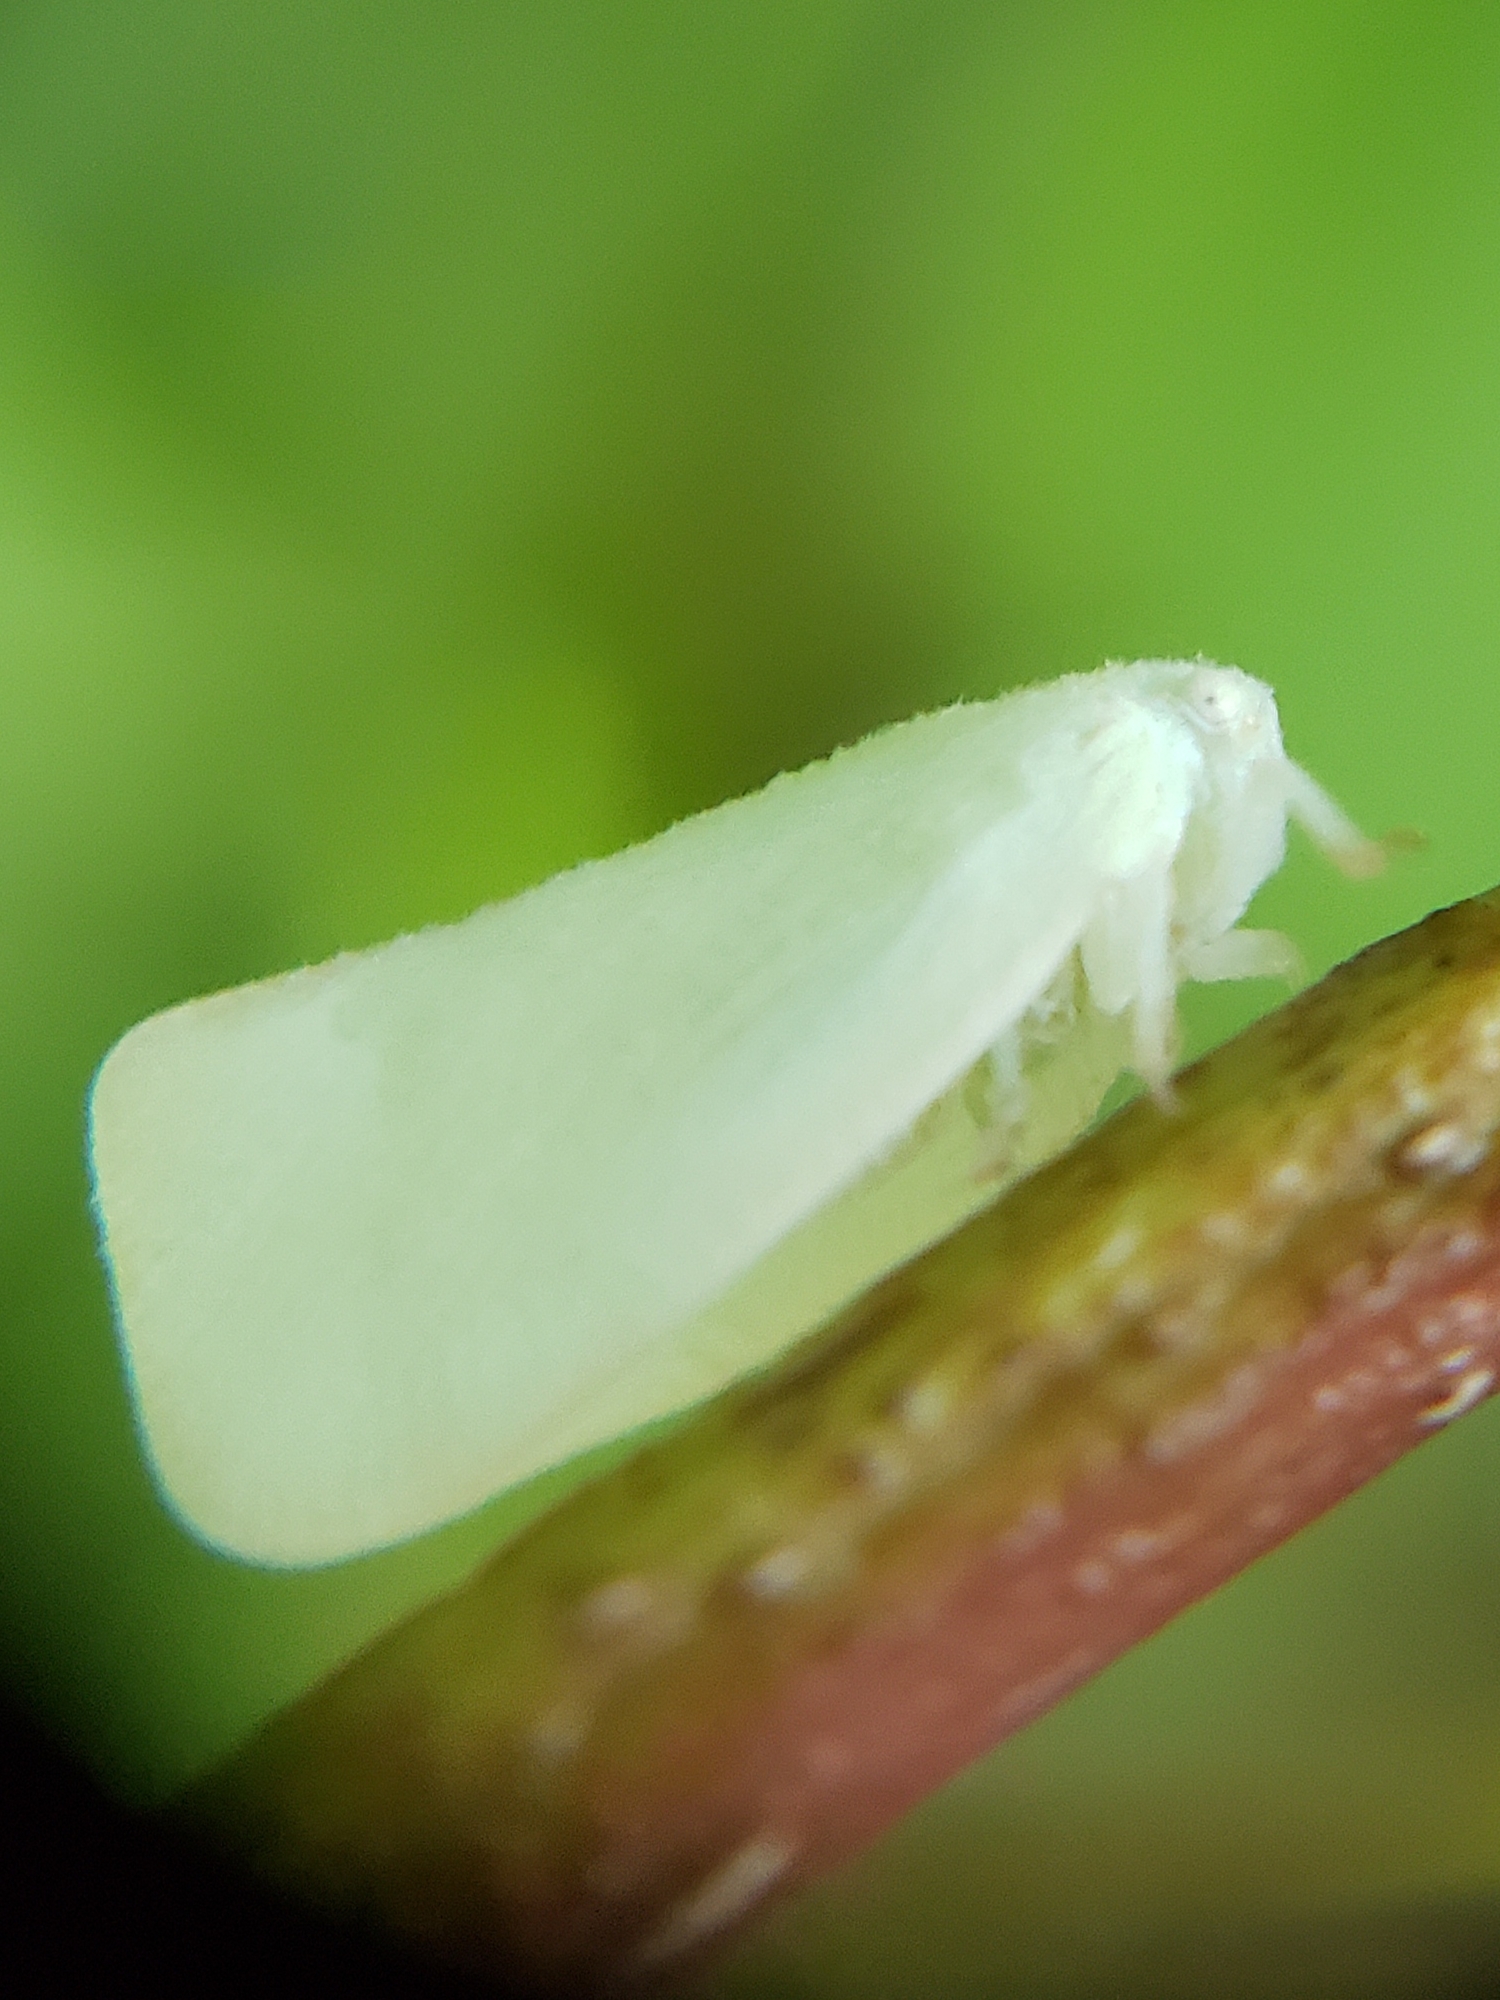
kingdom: Animalia
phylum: Arthropoda
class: Insecta
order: Hemiptera
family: Flatidae
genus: Flatormenis
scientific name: Flatormenis proxima
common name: Northern flatid planthopper
